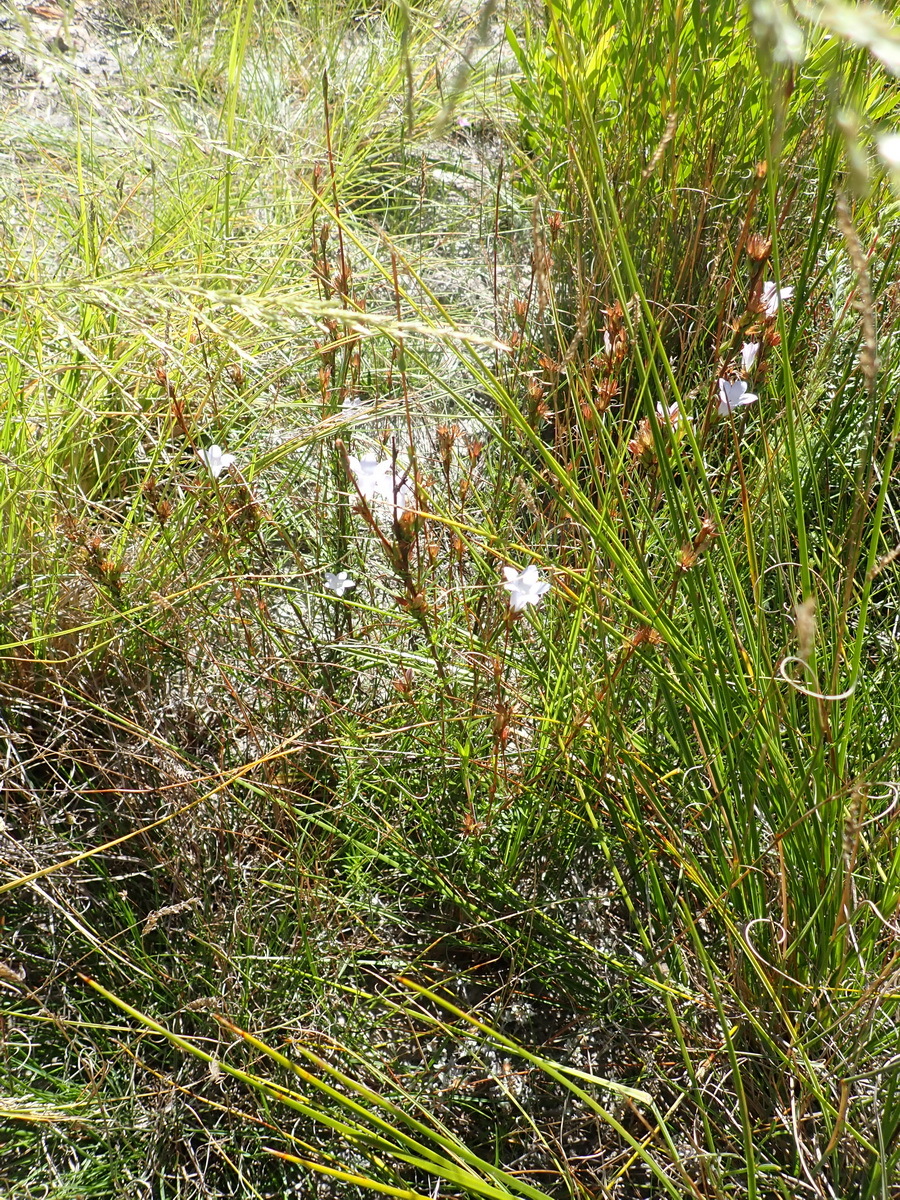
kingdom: Plantae
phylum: Tracheophyta
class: Magnoliopsida
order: Asterales
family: Campanulaceae
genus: Prismatocarpus
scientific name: Prismatocarpus candolleanus
